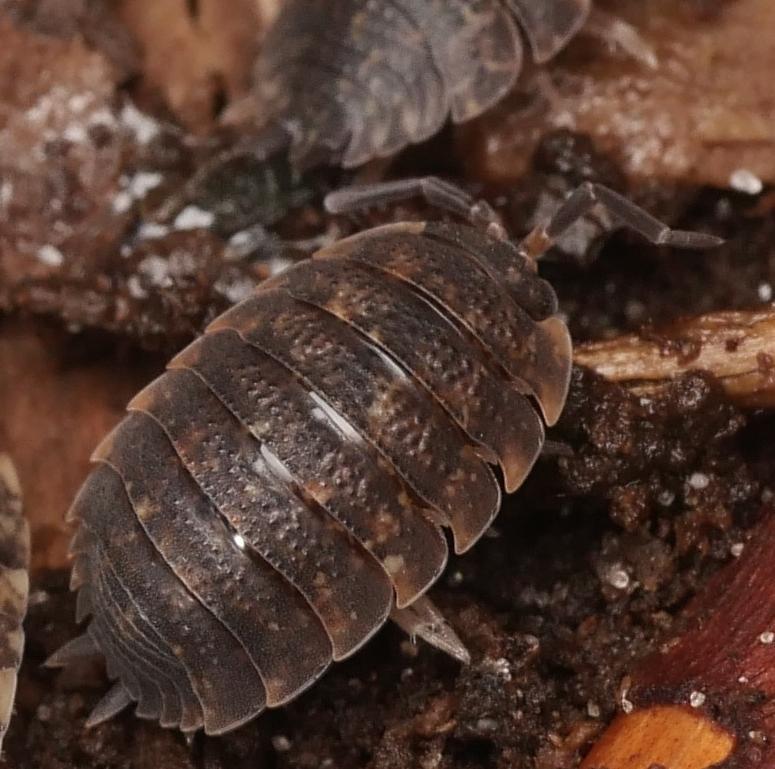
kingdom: Animalia
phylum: Arthropoda
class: Malacostraca
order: Isopoda
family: Porcellionidae
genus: Porcellio
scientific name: Porcellio scaber
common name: Common rough woodlouse
